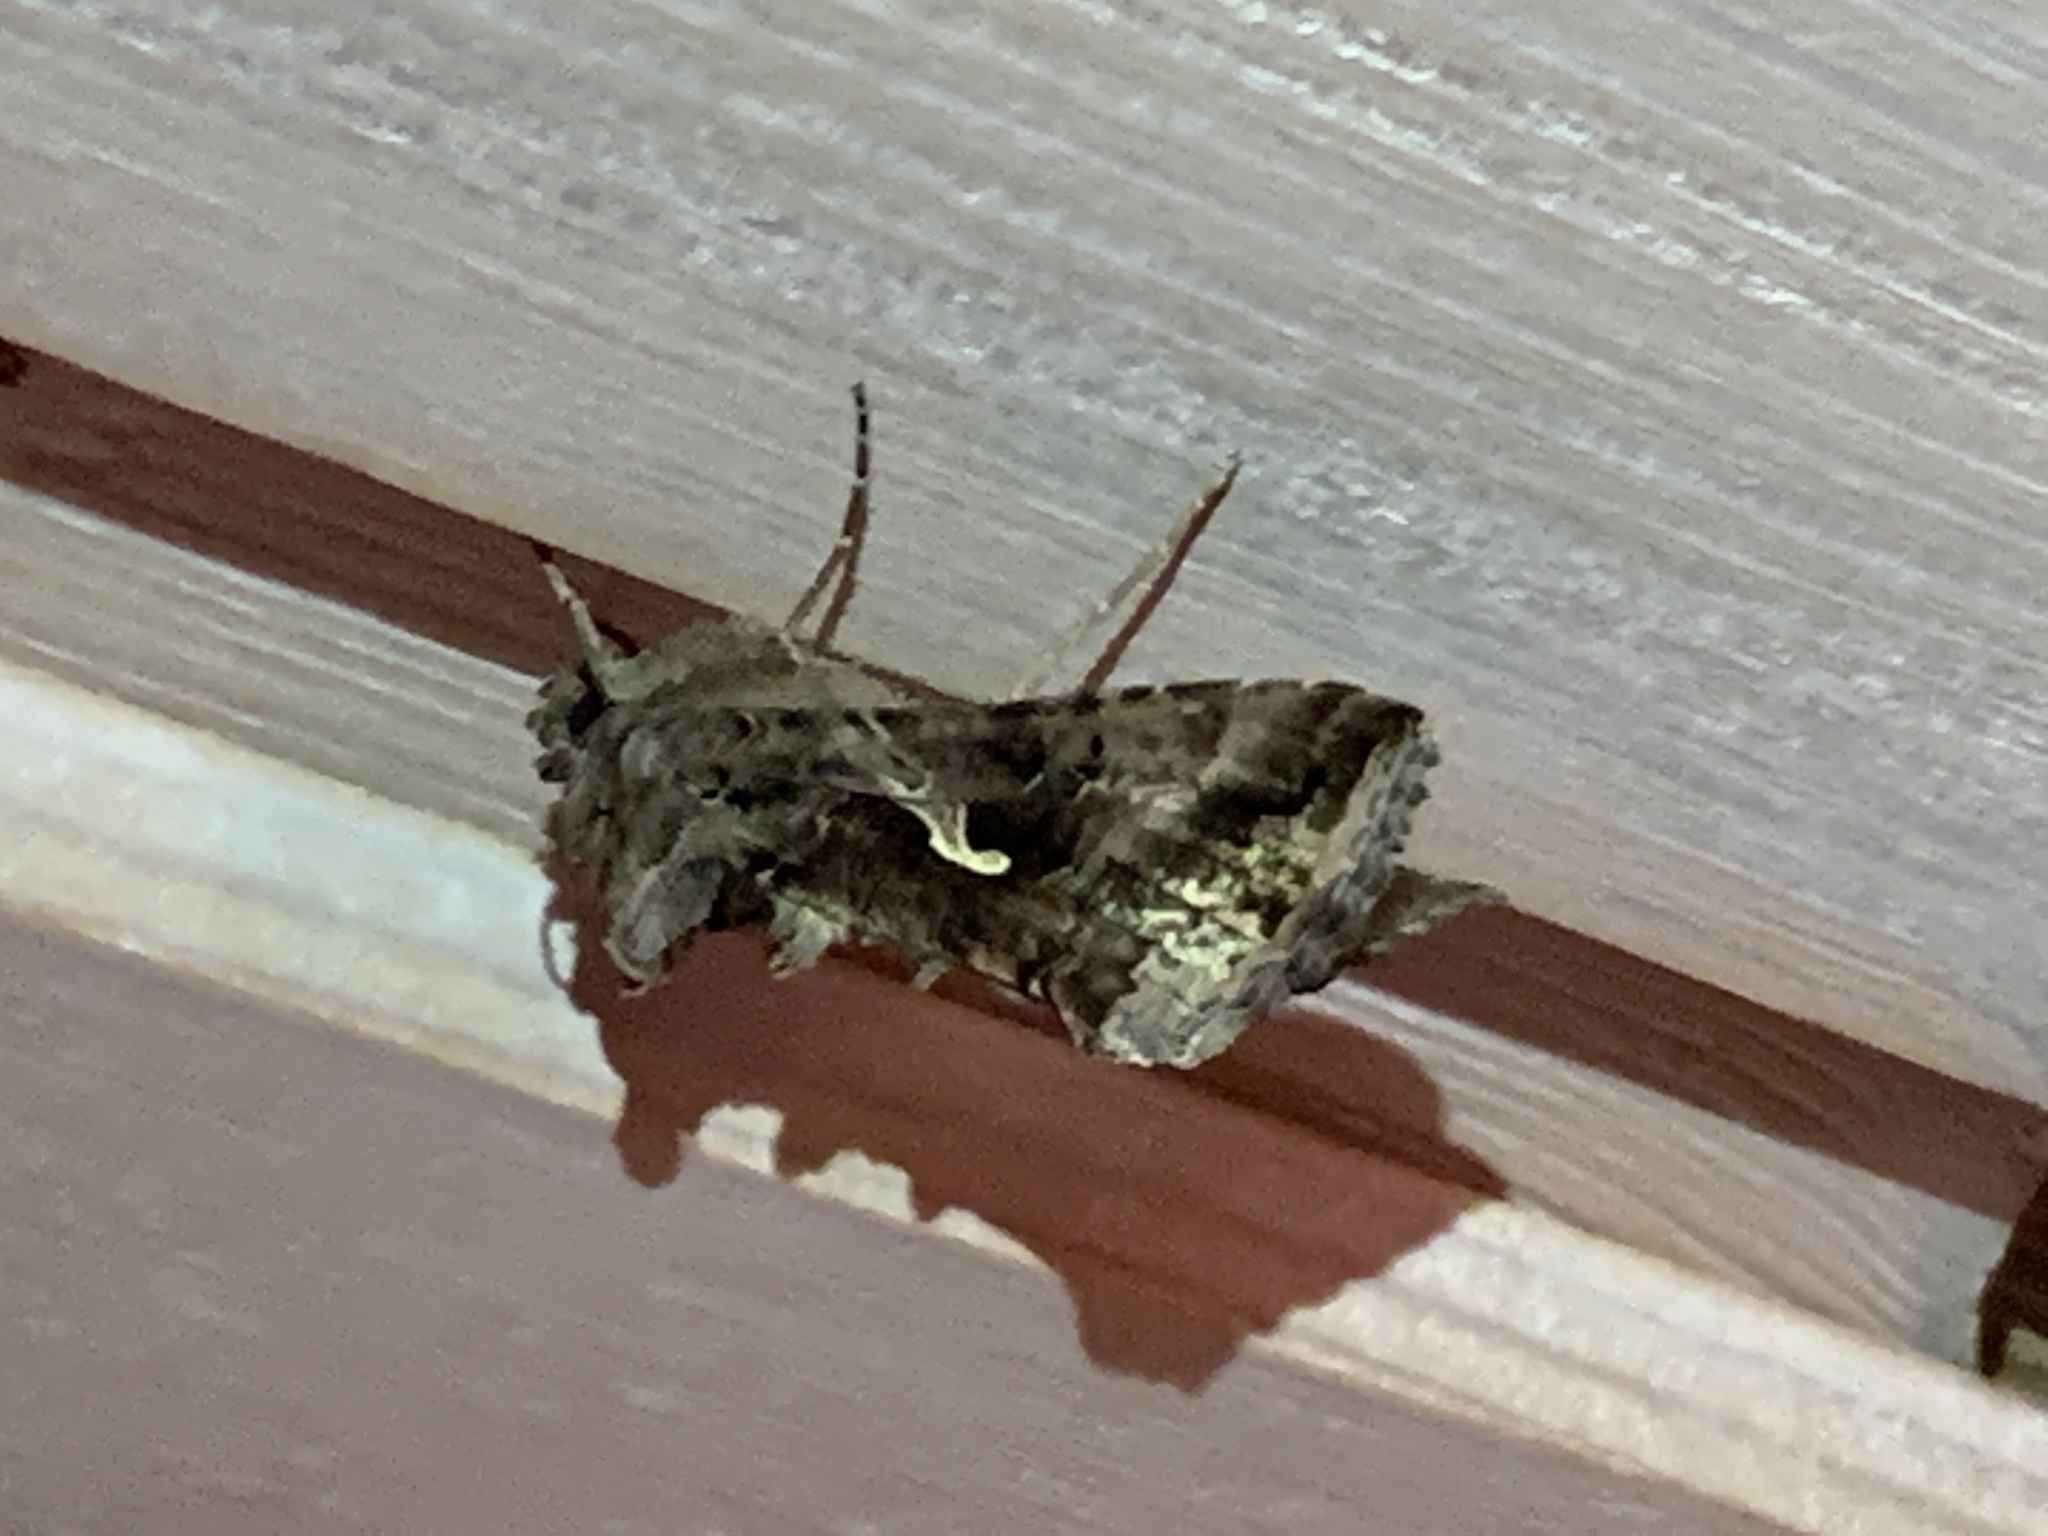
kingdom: Animalia
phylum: Arthropoda
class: Insecta
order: Lepidoptera
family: Noctuidae
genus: Autographa
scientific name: Autographa gamma
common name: Silver y
